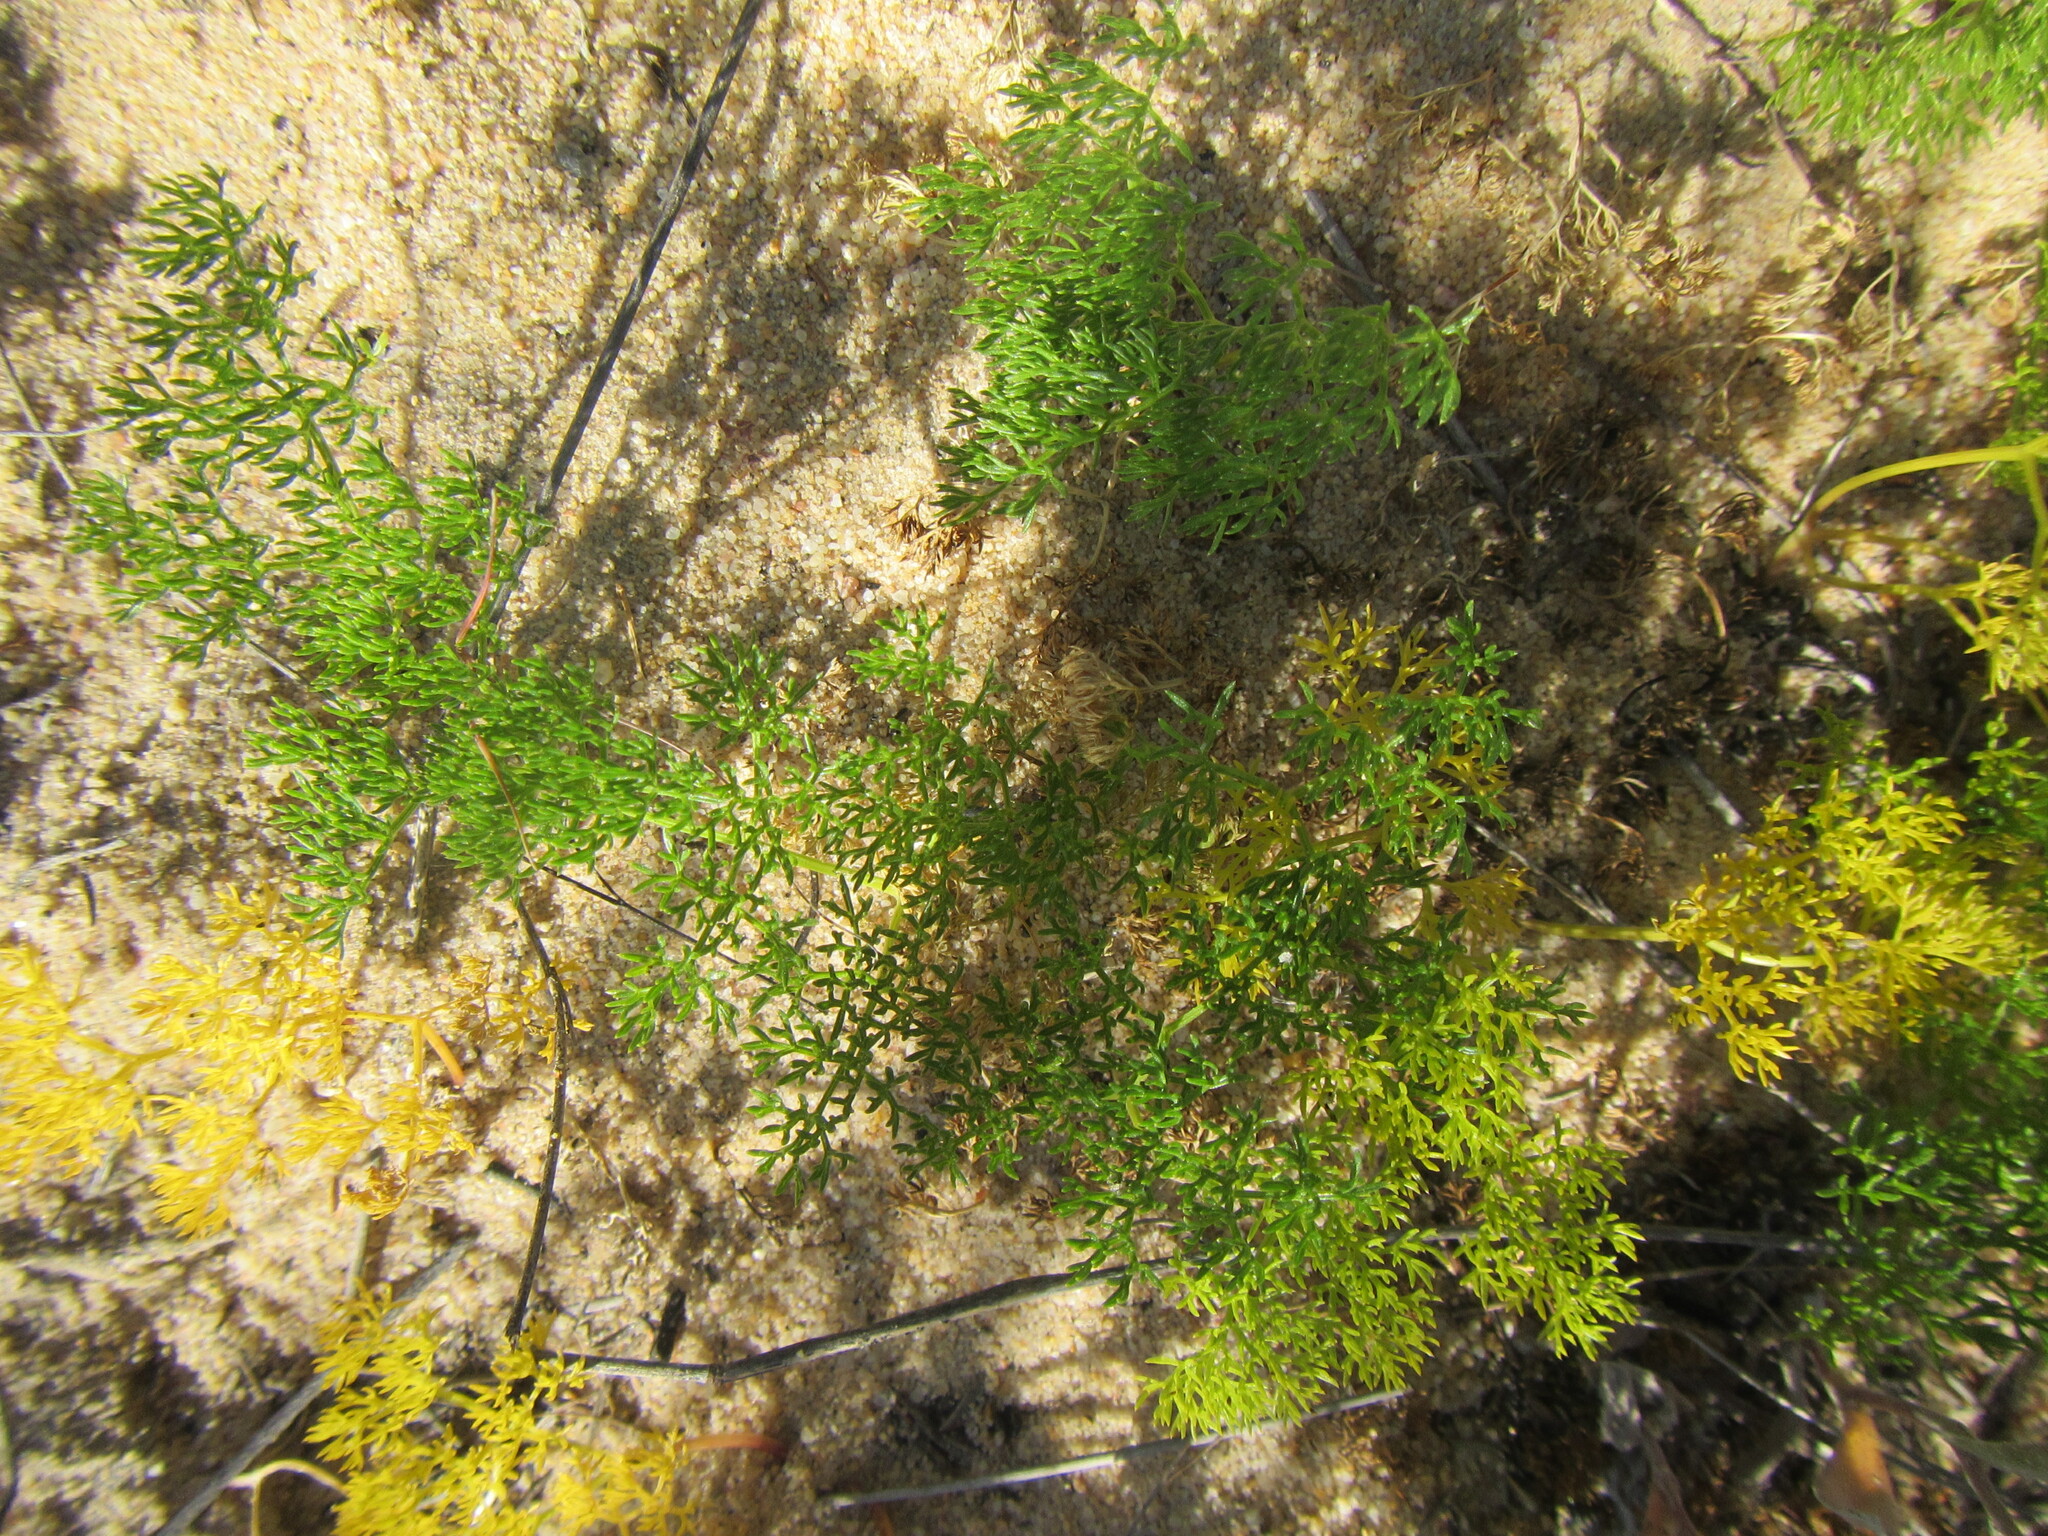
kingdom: Plantae
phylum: Tracheophyta
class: Magnoliopsida
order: Apiales
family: Apiaceae
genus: Annesorhiza
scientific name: Annesorhiza macrocarpa
